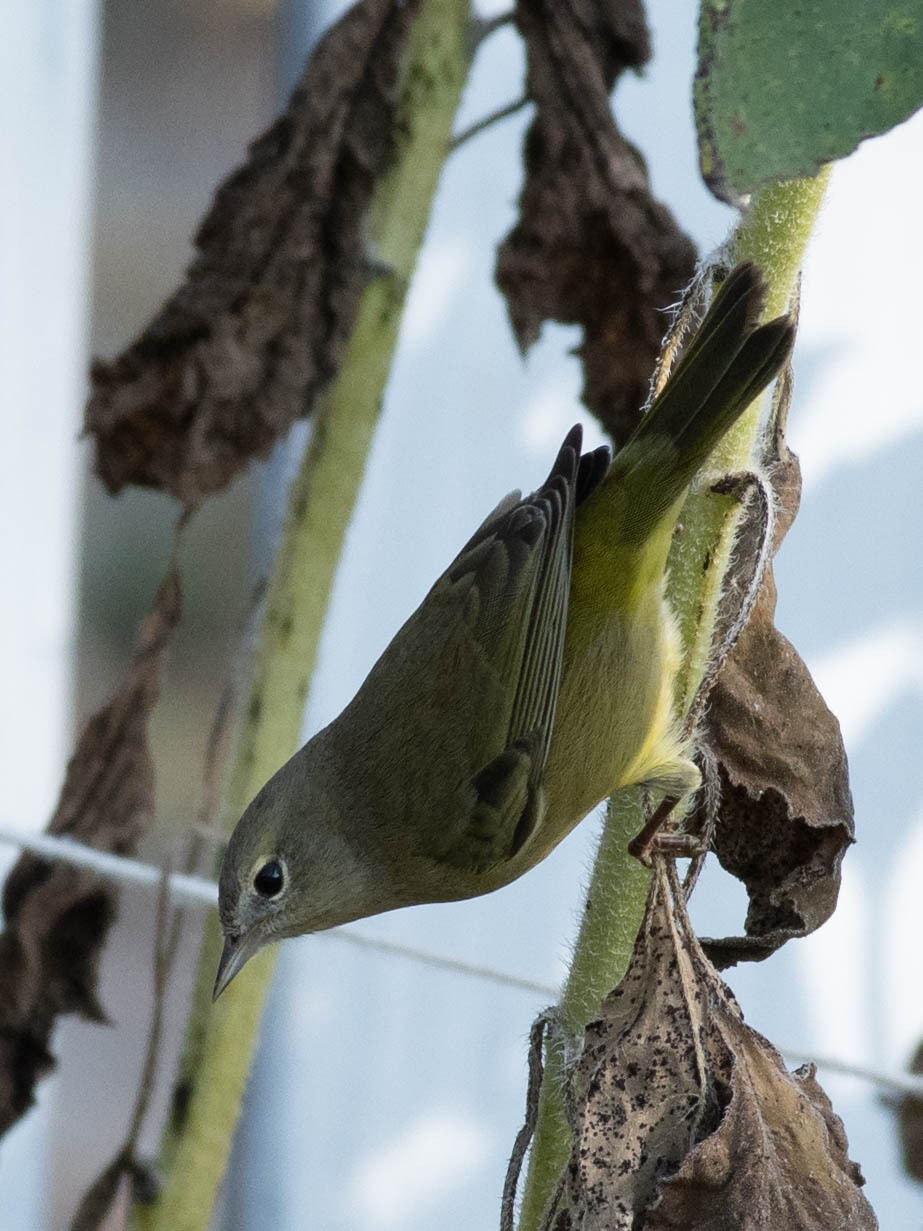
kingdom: Animalia
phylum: Chordata
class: Aves
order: Passeriformes
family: Parulidae
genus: Leiothlypis
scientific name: Leiothlypis celata
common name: Orange-crowned warbler
